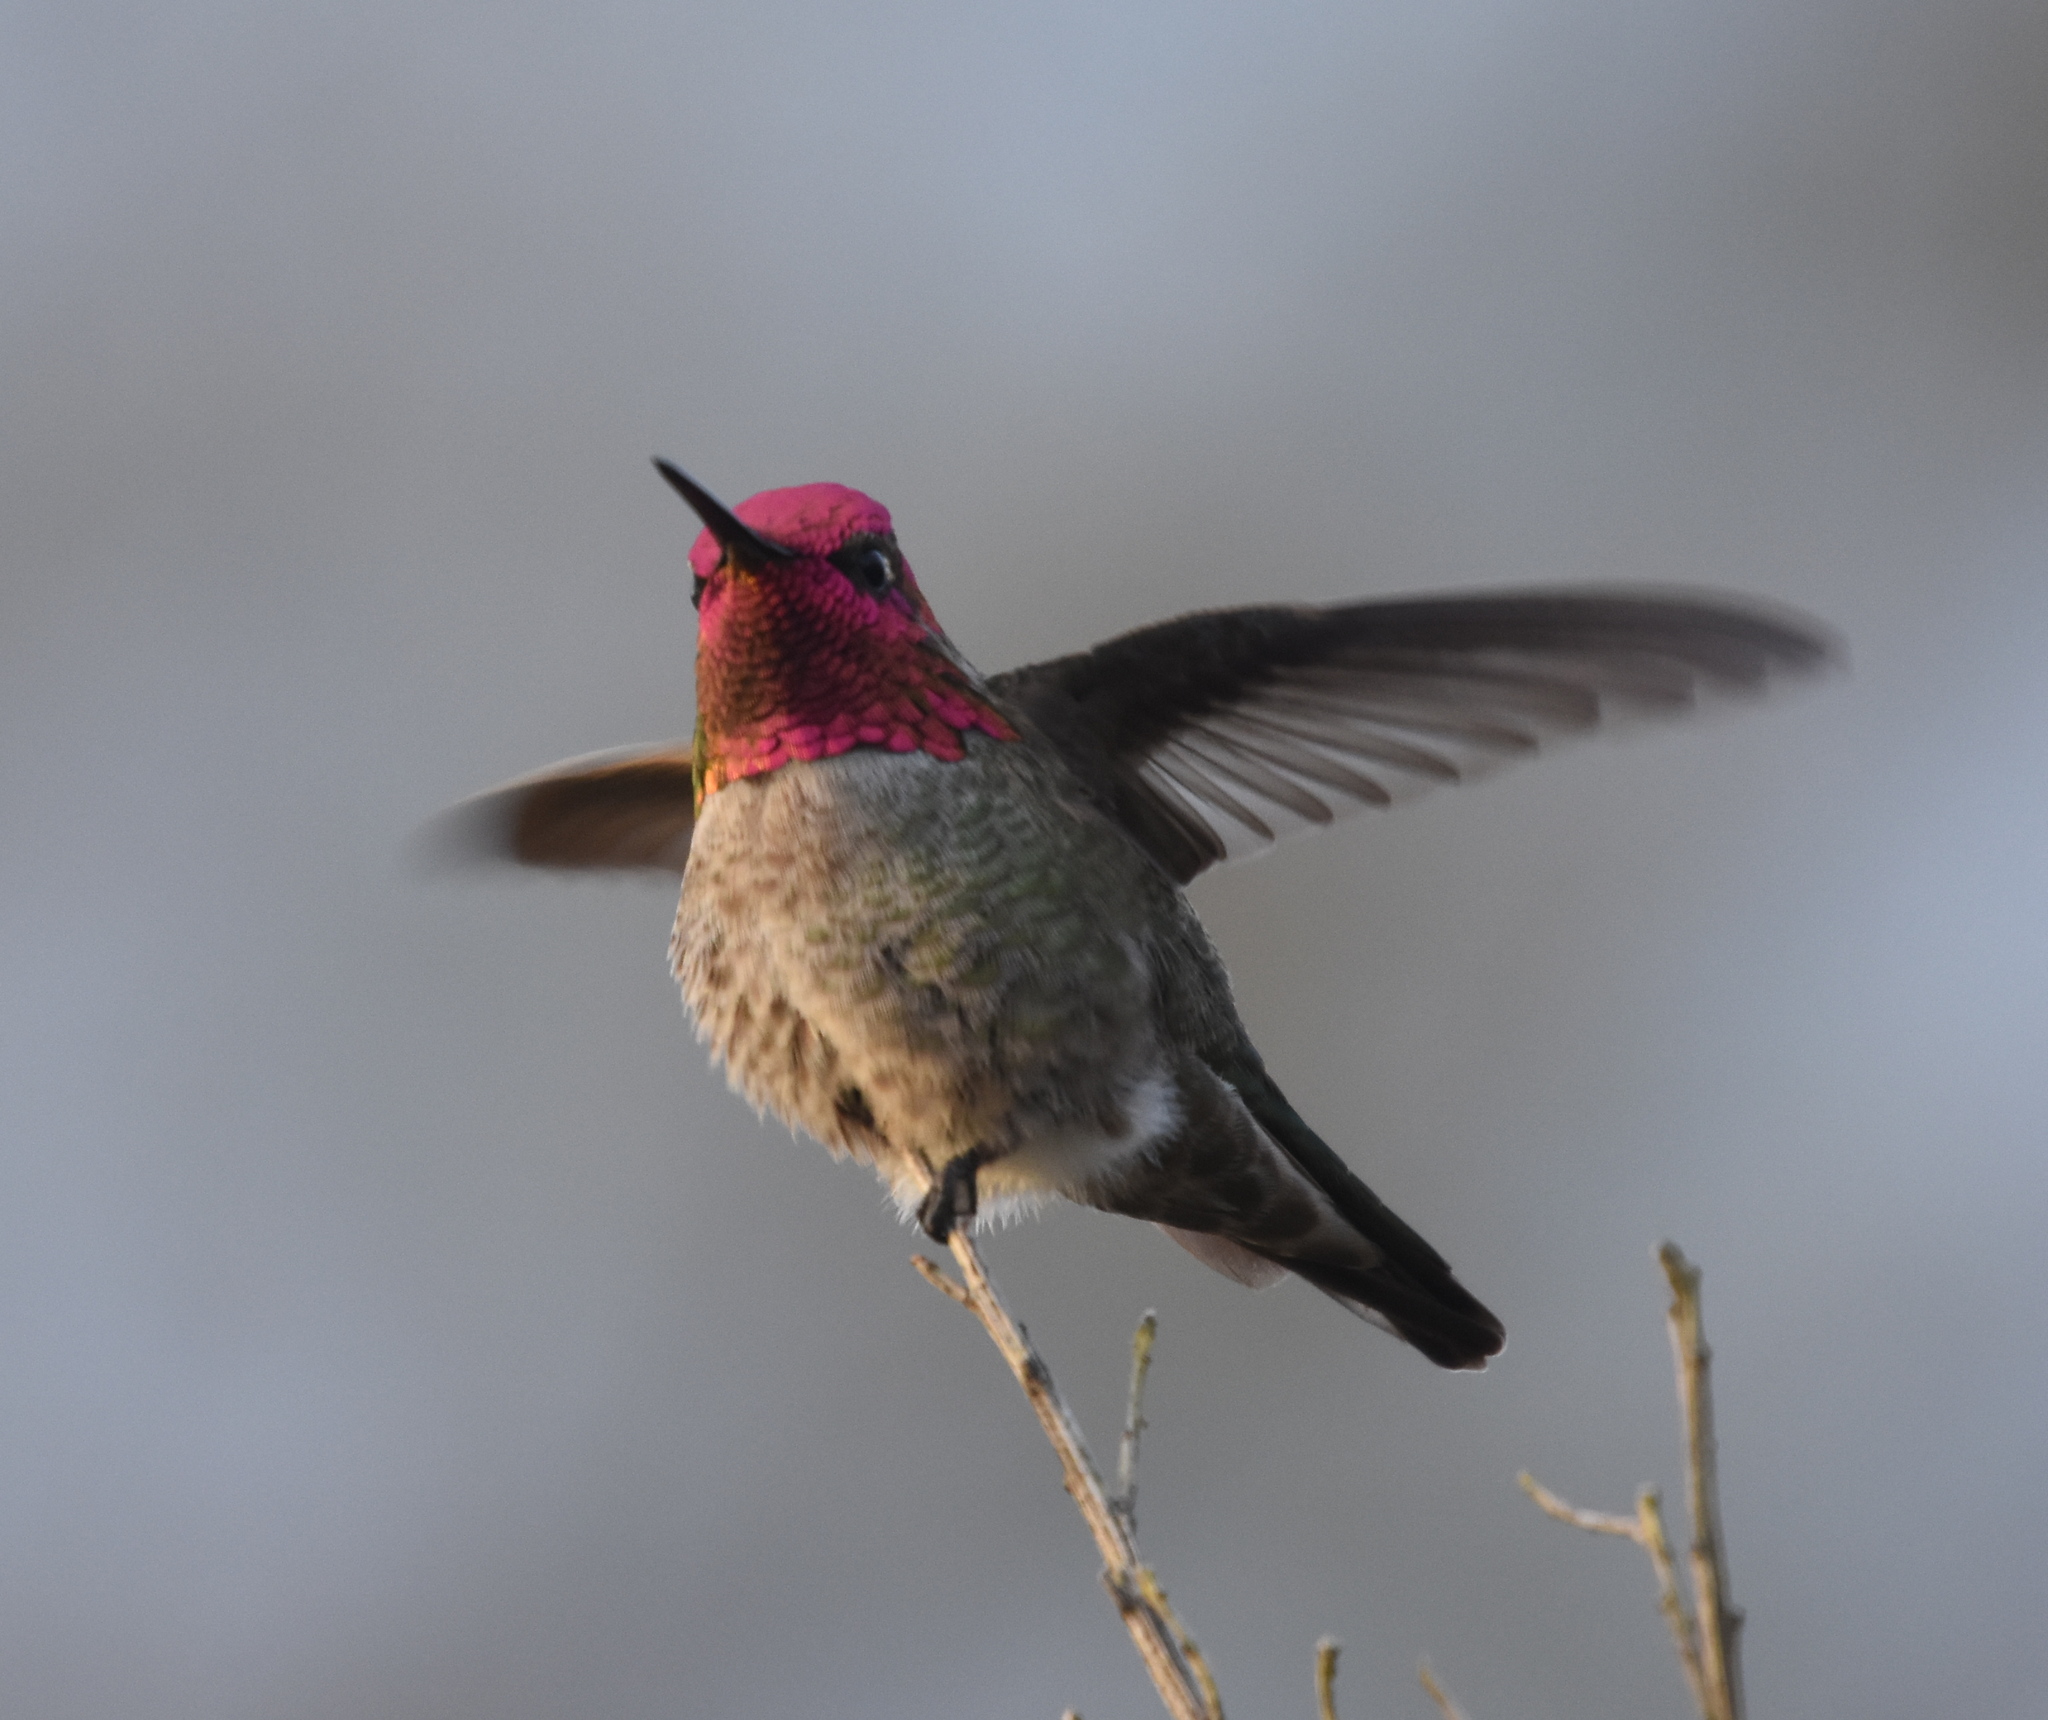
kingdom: Animalia
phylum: Chordata
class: Aves
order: Apodiformes
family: Trochilidae
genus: Calypte
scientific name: Calypte anna
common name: Anna's hummingbird
